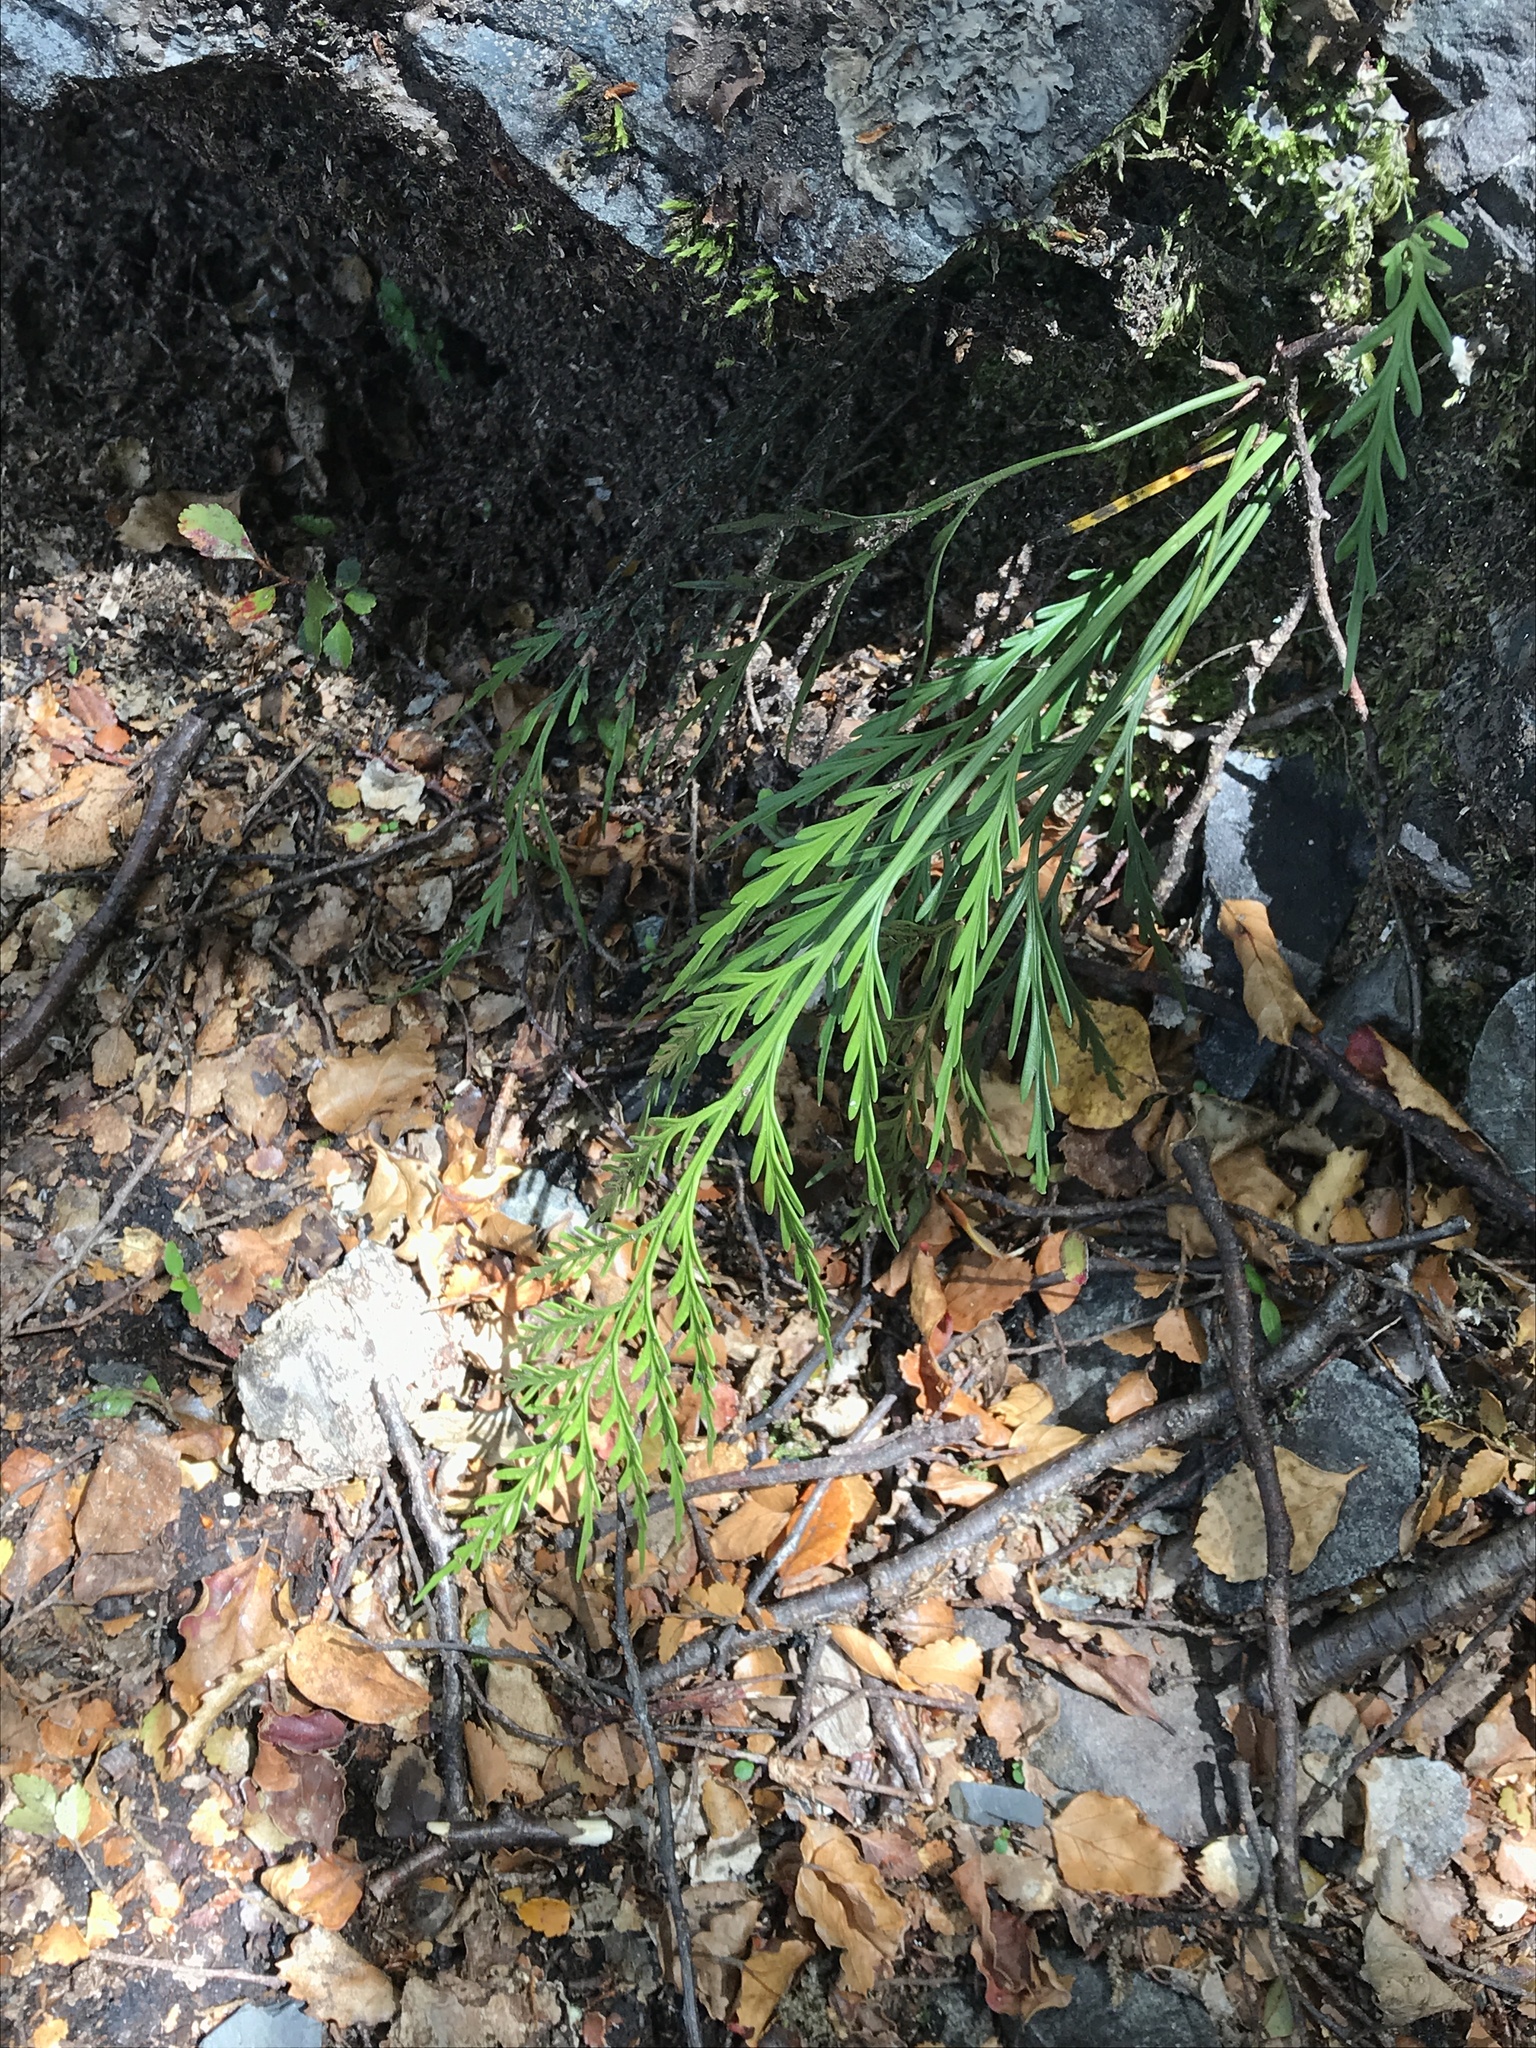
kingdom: Plantae
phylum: Tracheophyta
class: Polypodiopsida
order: Polypodiales
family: Aspleniaceae
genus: Asplenium
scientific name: Asplenium flaccidum
